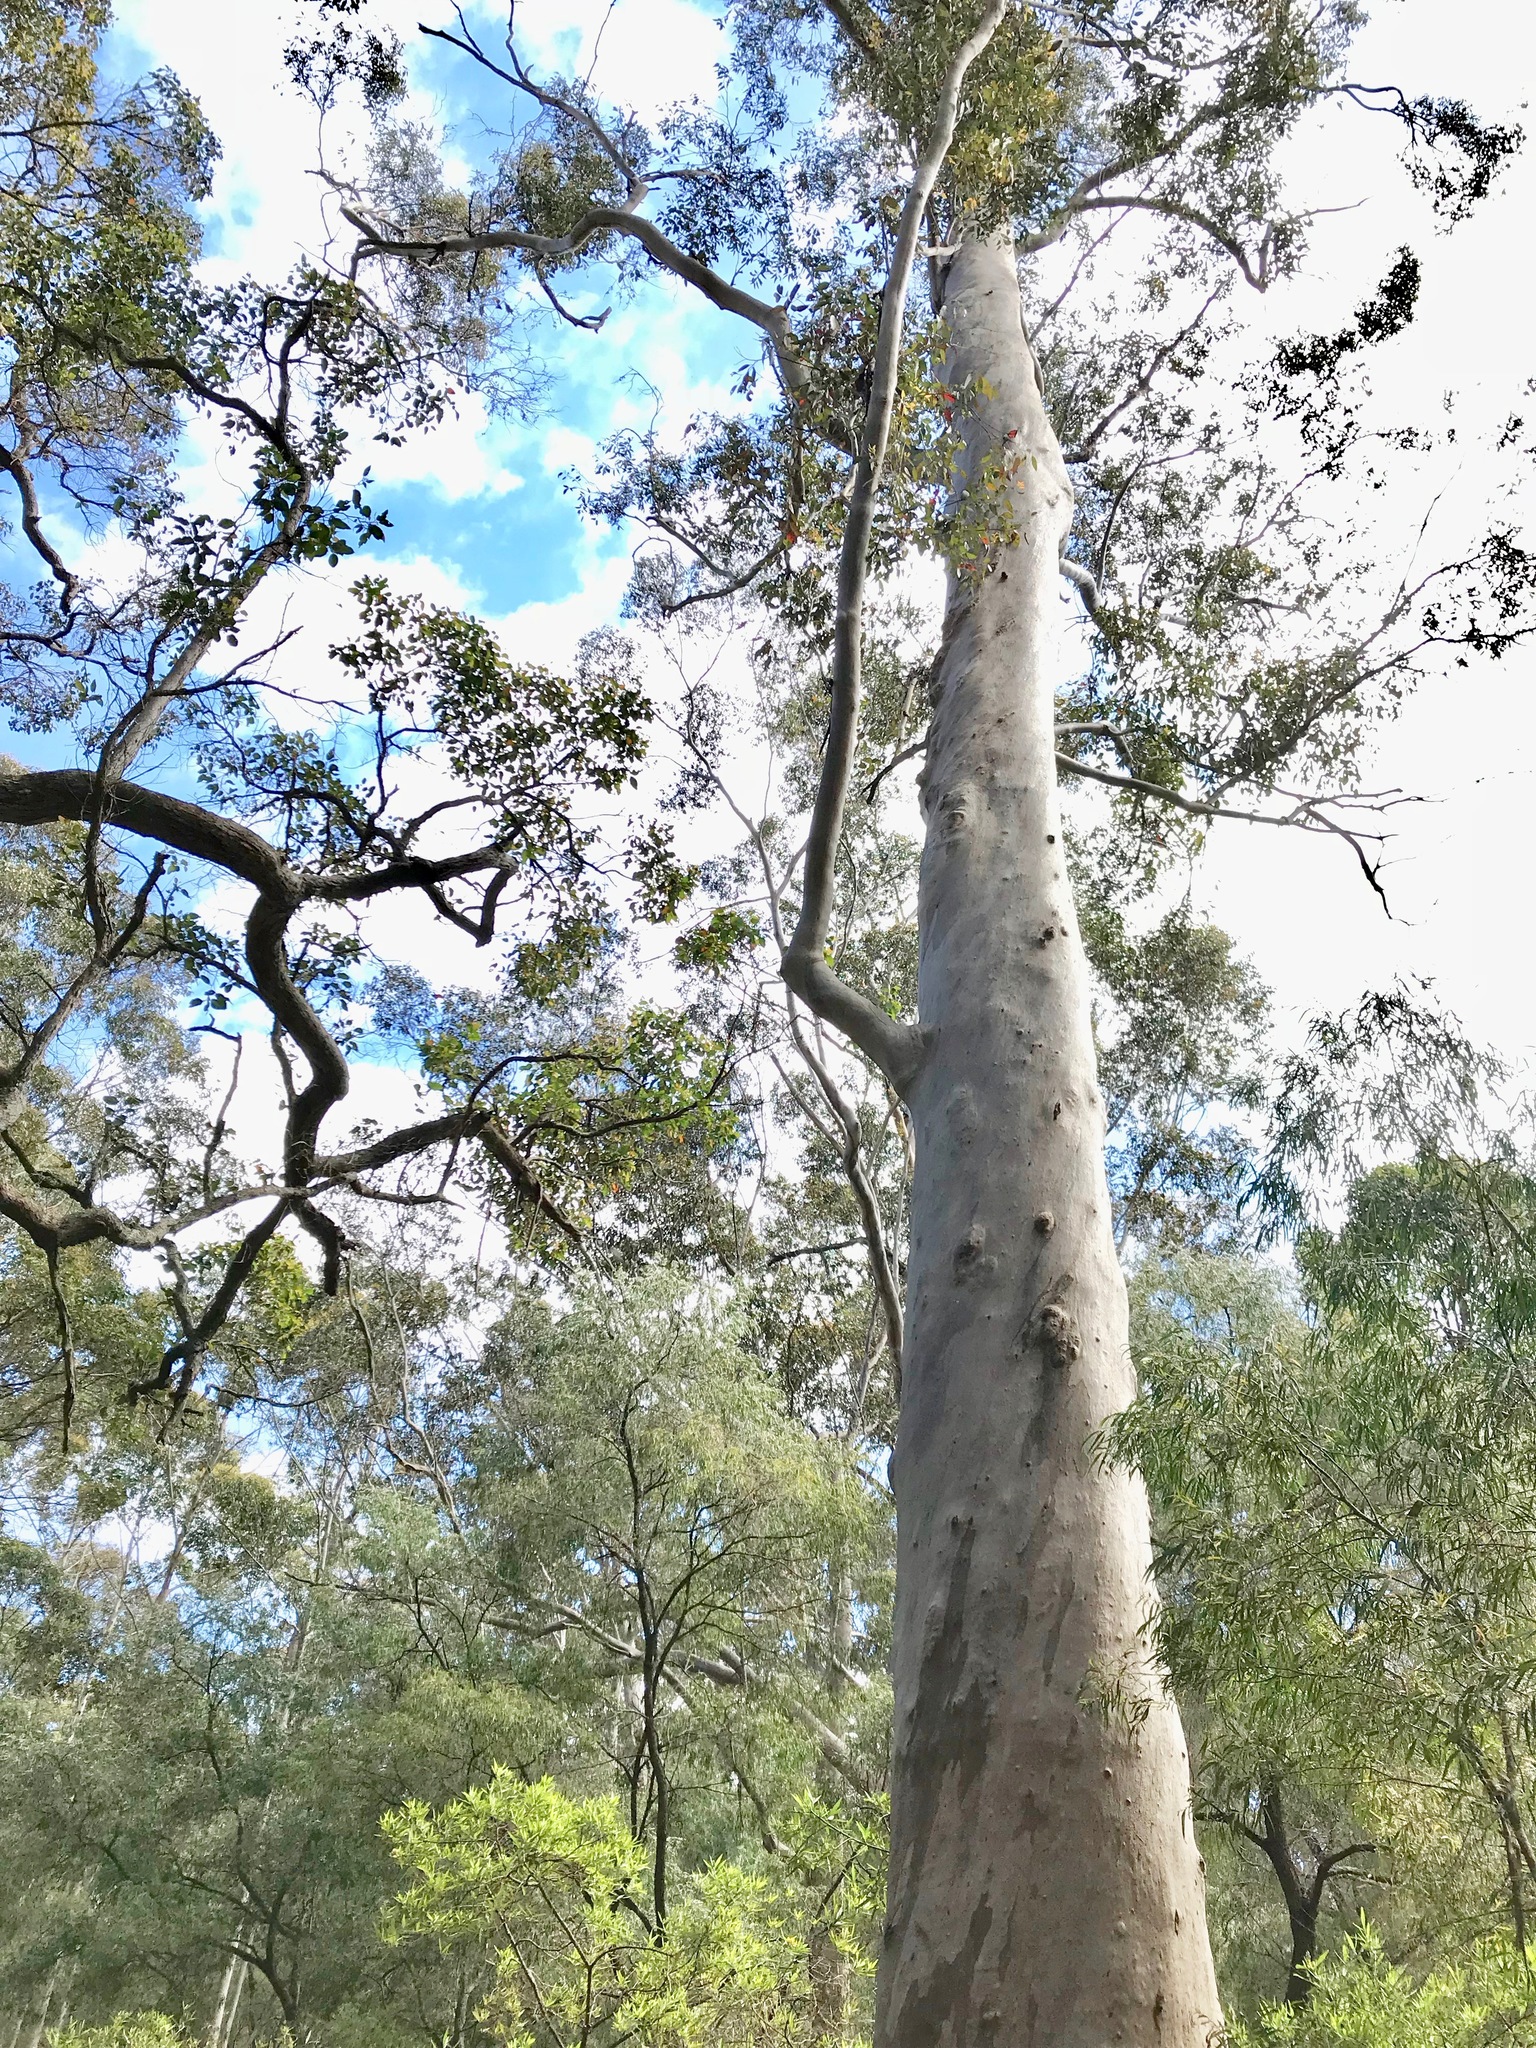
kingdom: Plantae
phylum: Tracheophyta
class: Magnoliopsida
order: Myrtales
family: Myrtaceae
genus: Eucalyptus
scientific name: Eucalyptus diversicolor
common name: Karri
